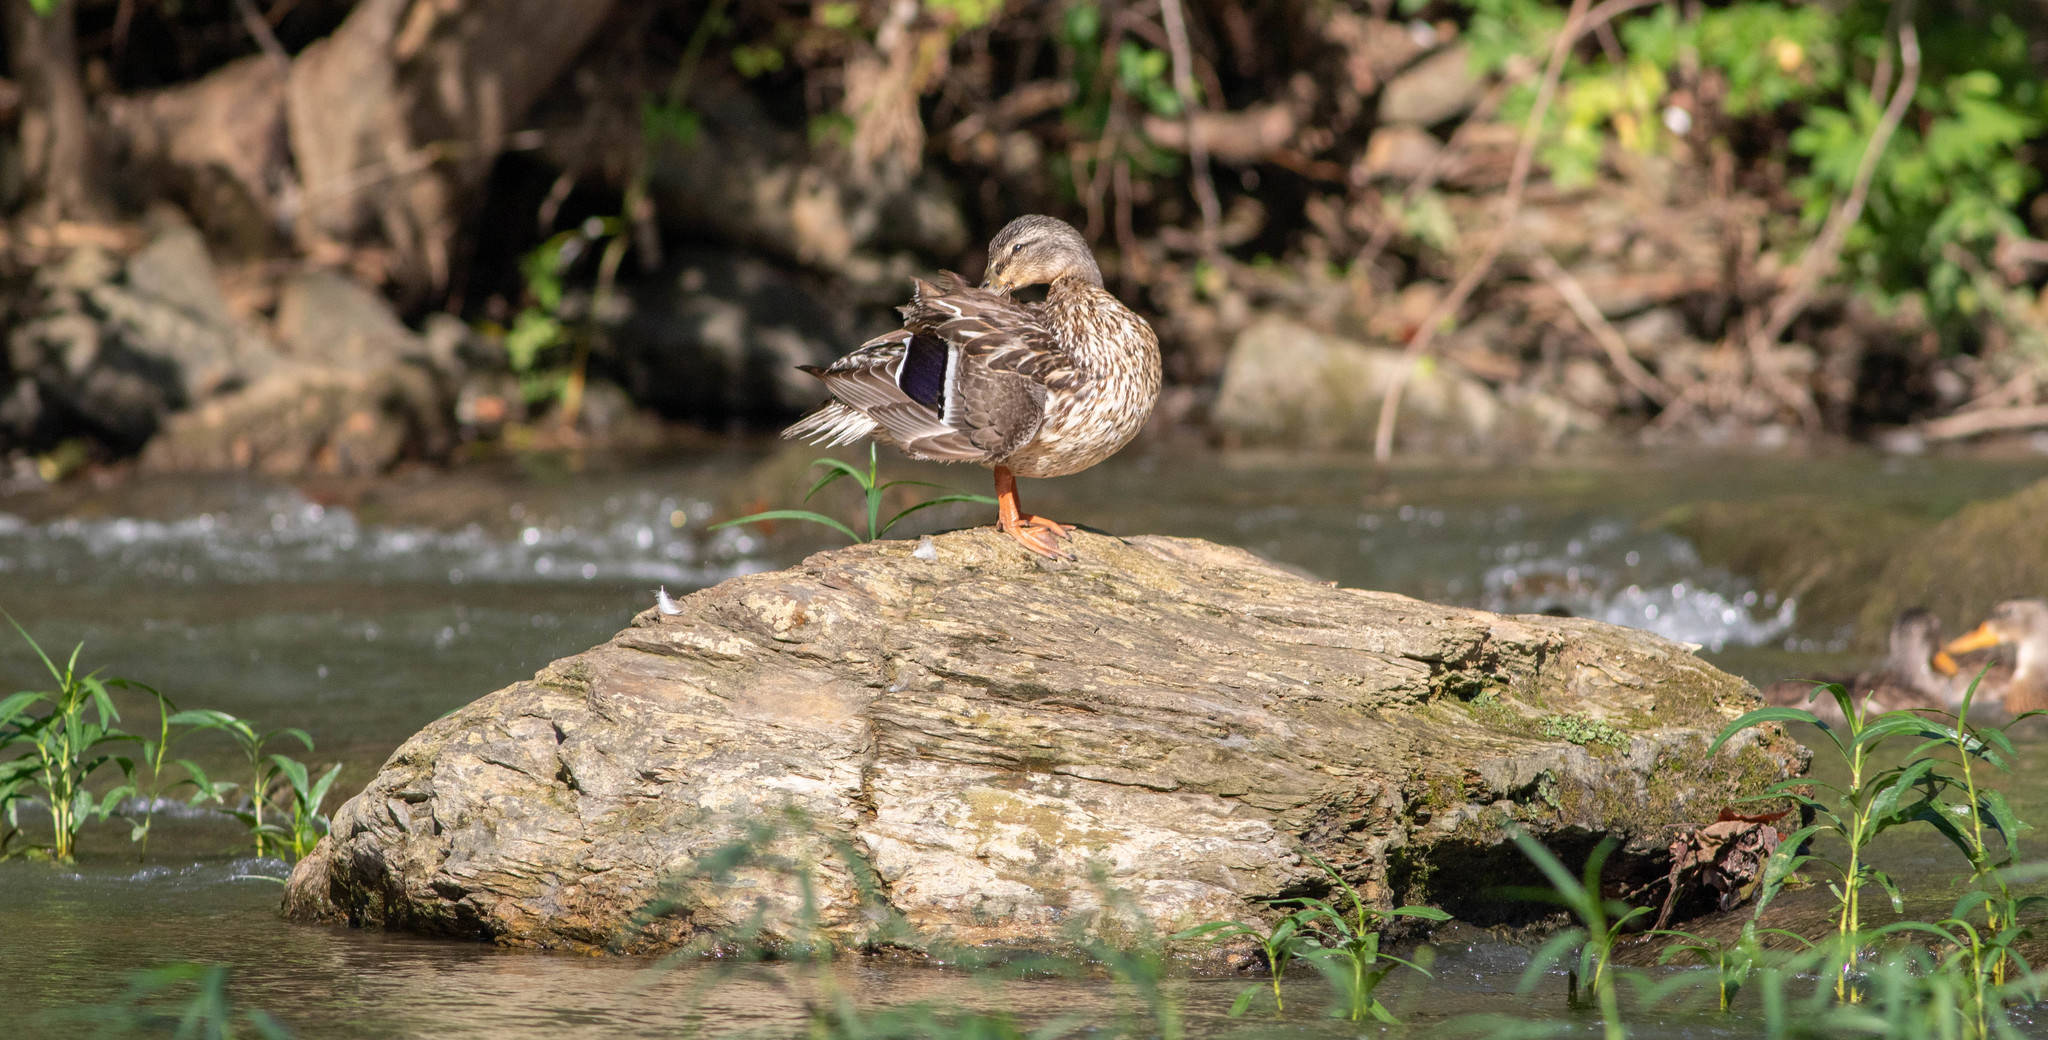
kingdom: Animalia
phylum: Chordata
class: Aves
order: Anseriformes
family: Anatidae
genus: Anas
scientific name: Anas platyrhynchos
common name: Mallard
